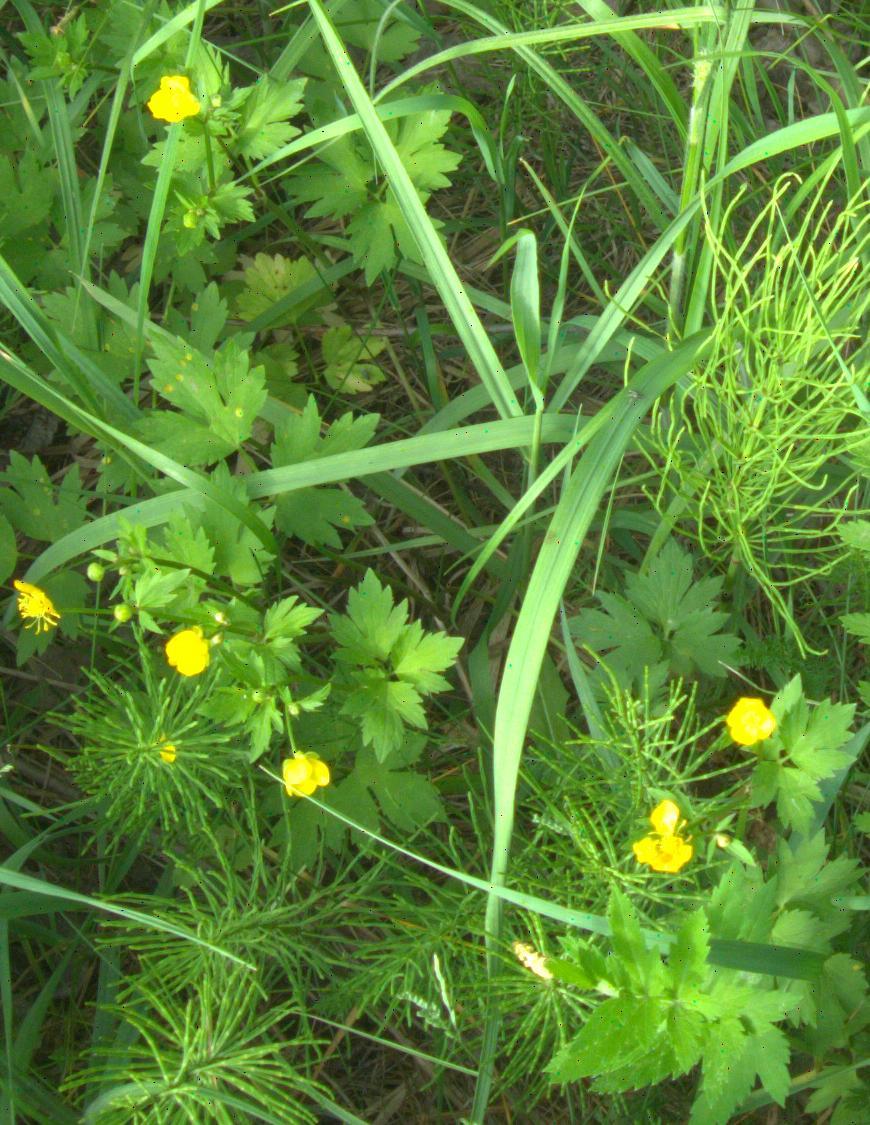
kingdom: Plantae
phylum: Tracheophyta
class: Magnoliopsida
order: Ranunculales
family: Ranunculaceae
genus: Ranunculus
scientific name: Ranunculus repens
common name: Creeping buttercup
